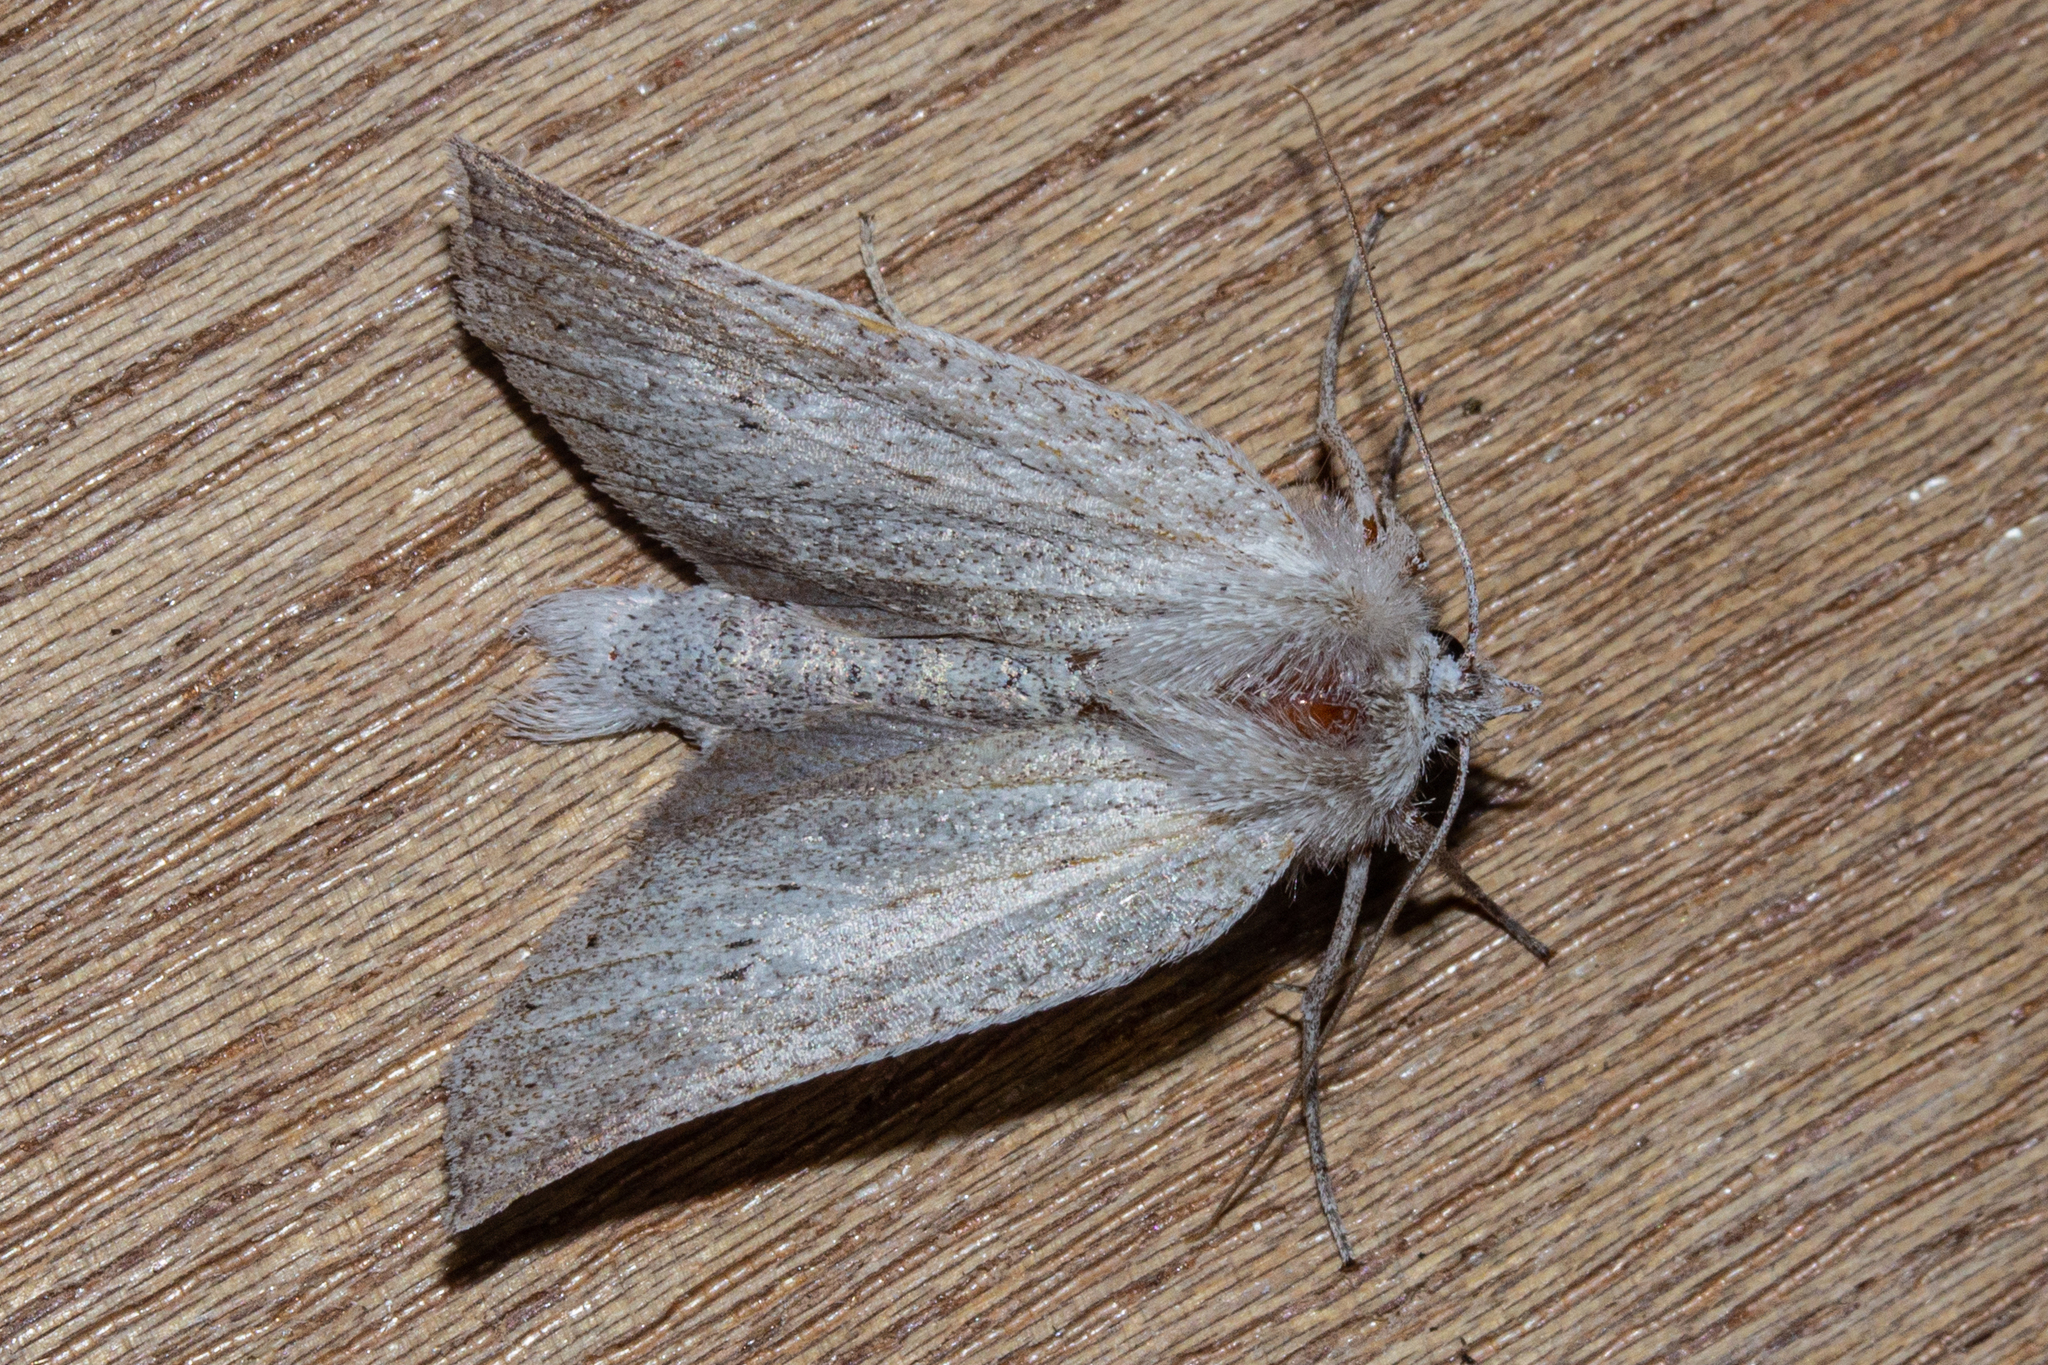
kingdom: Animalia
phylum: Arthropoda
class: Insecta
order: Lepidoptera
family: Geometridae
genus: Declana
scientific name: Declana leptomera
